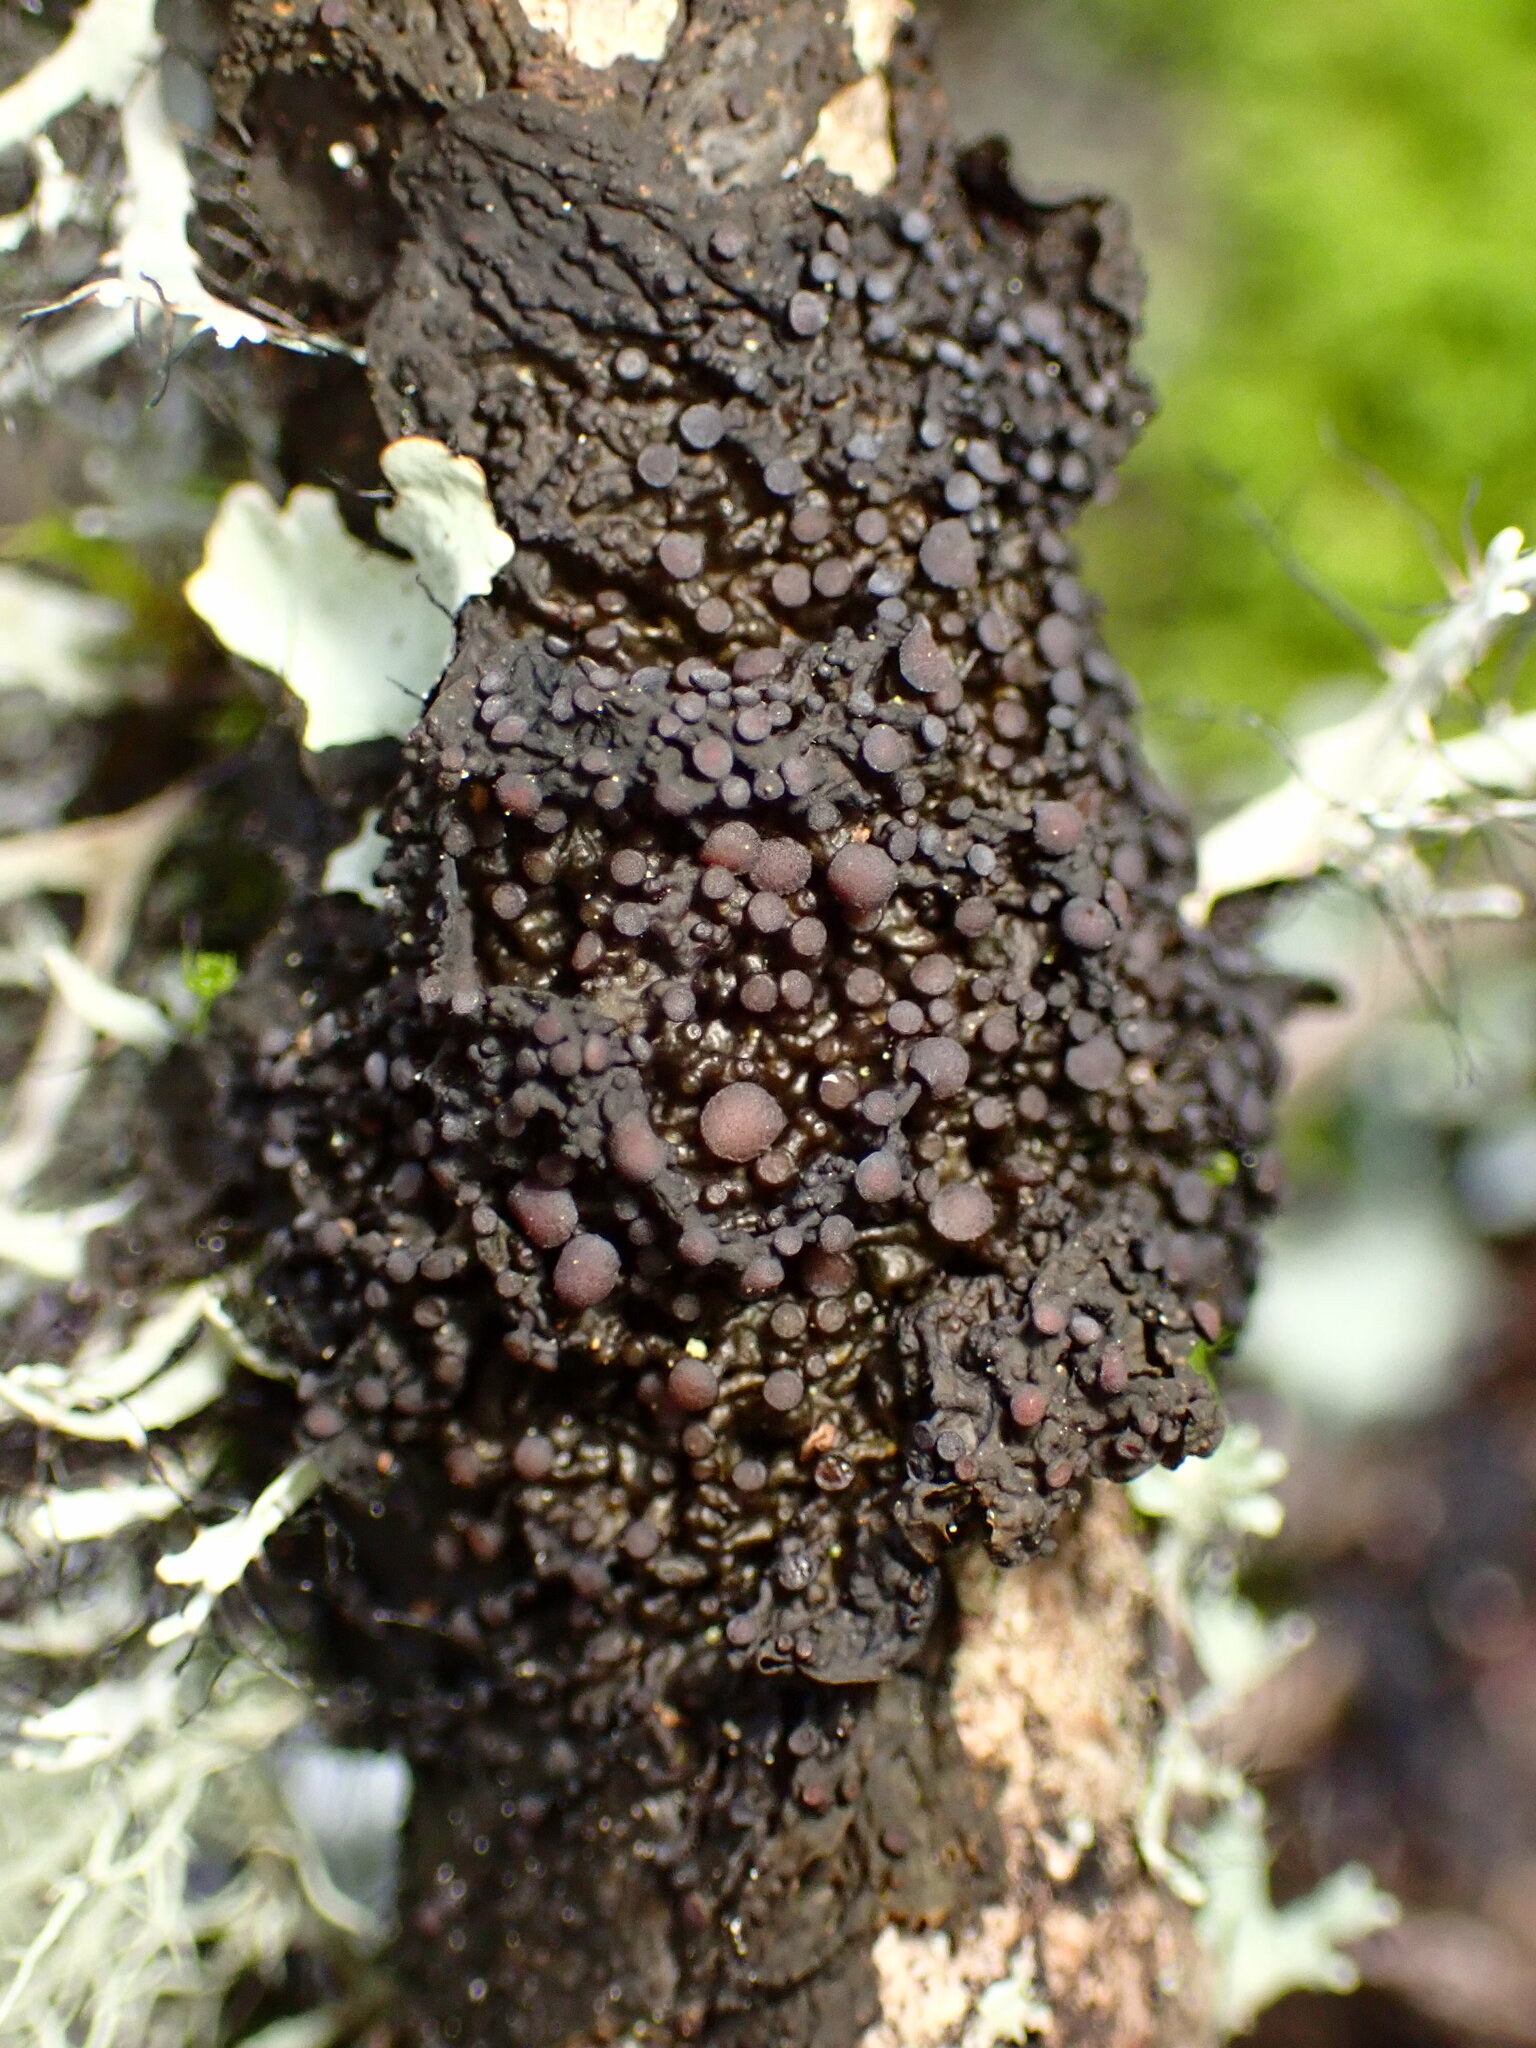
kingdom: Fungi
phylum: Ascomycota
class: Lecanoromycetes
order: Peltigerales
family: Collemataceae
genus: Collema
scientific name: Collema nigrescens
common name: Blistered jelly lichen
